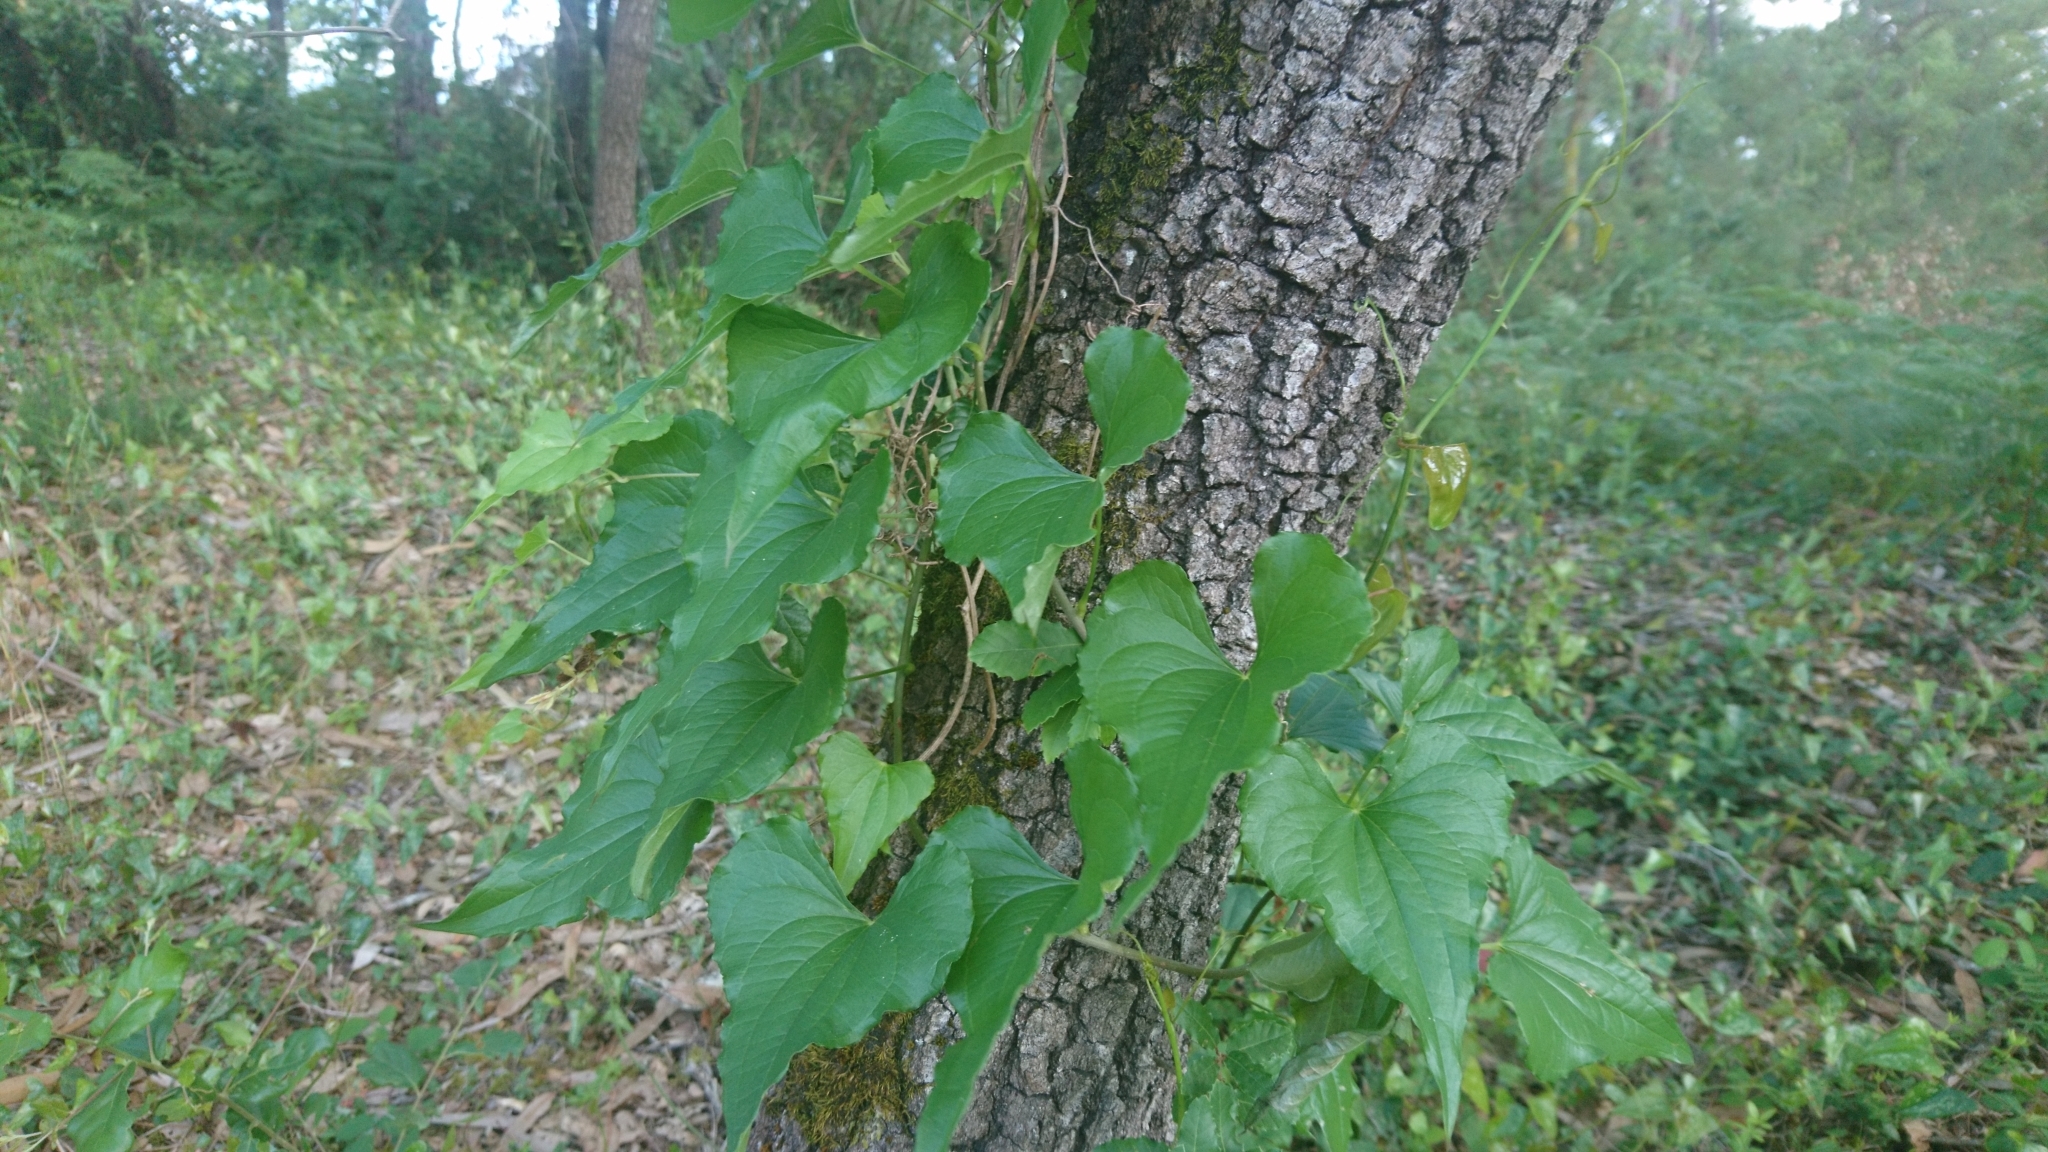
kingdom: Plantae
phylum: Tracheophyta
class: Liliopsida
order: Dioscoreales
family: Dioscoreaceae
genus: Dioscorea
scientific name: Dioscorea communis
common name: Black-bindweed
